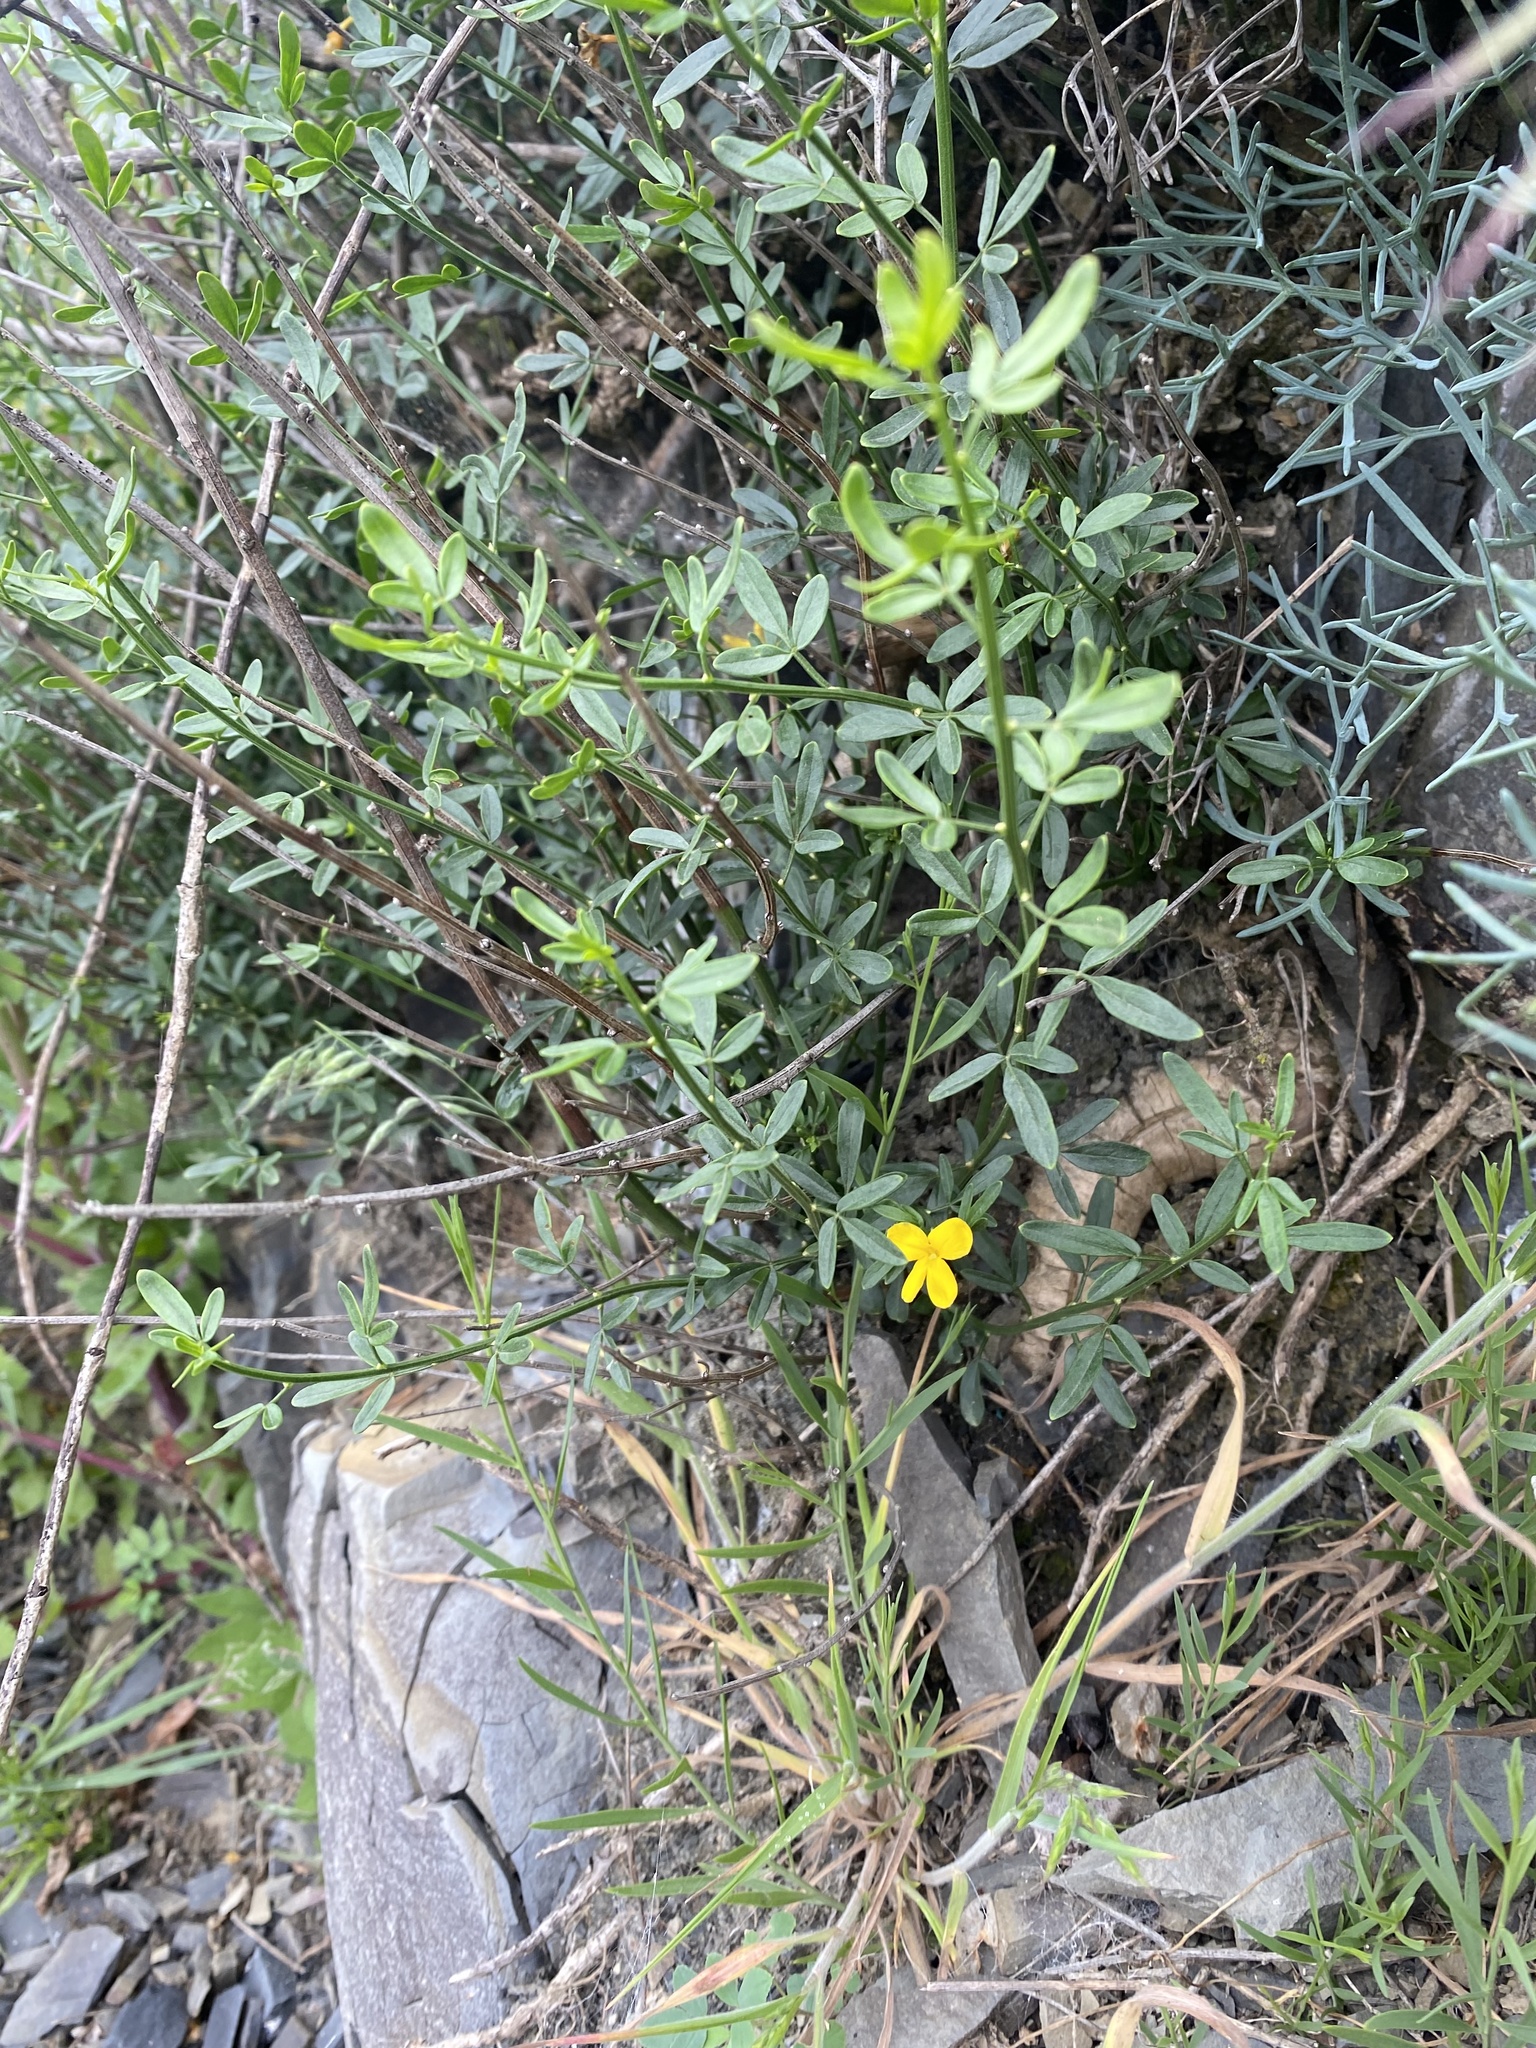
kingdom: Plantae
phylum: Tracheophyta
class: Magnoliopsida
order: Lamiales
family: Oleaceae
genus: Chrysojasminum
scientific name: Chrysojasminum fruticans
